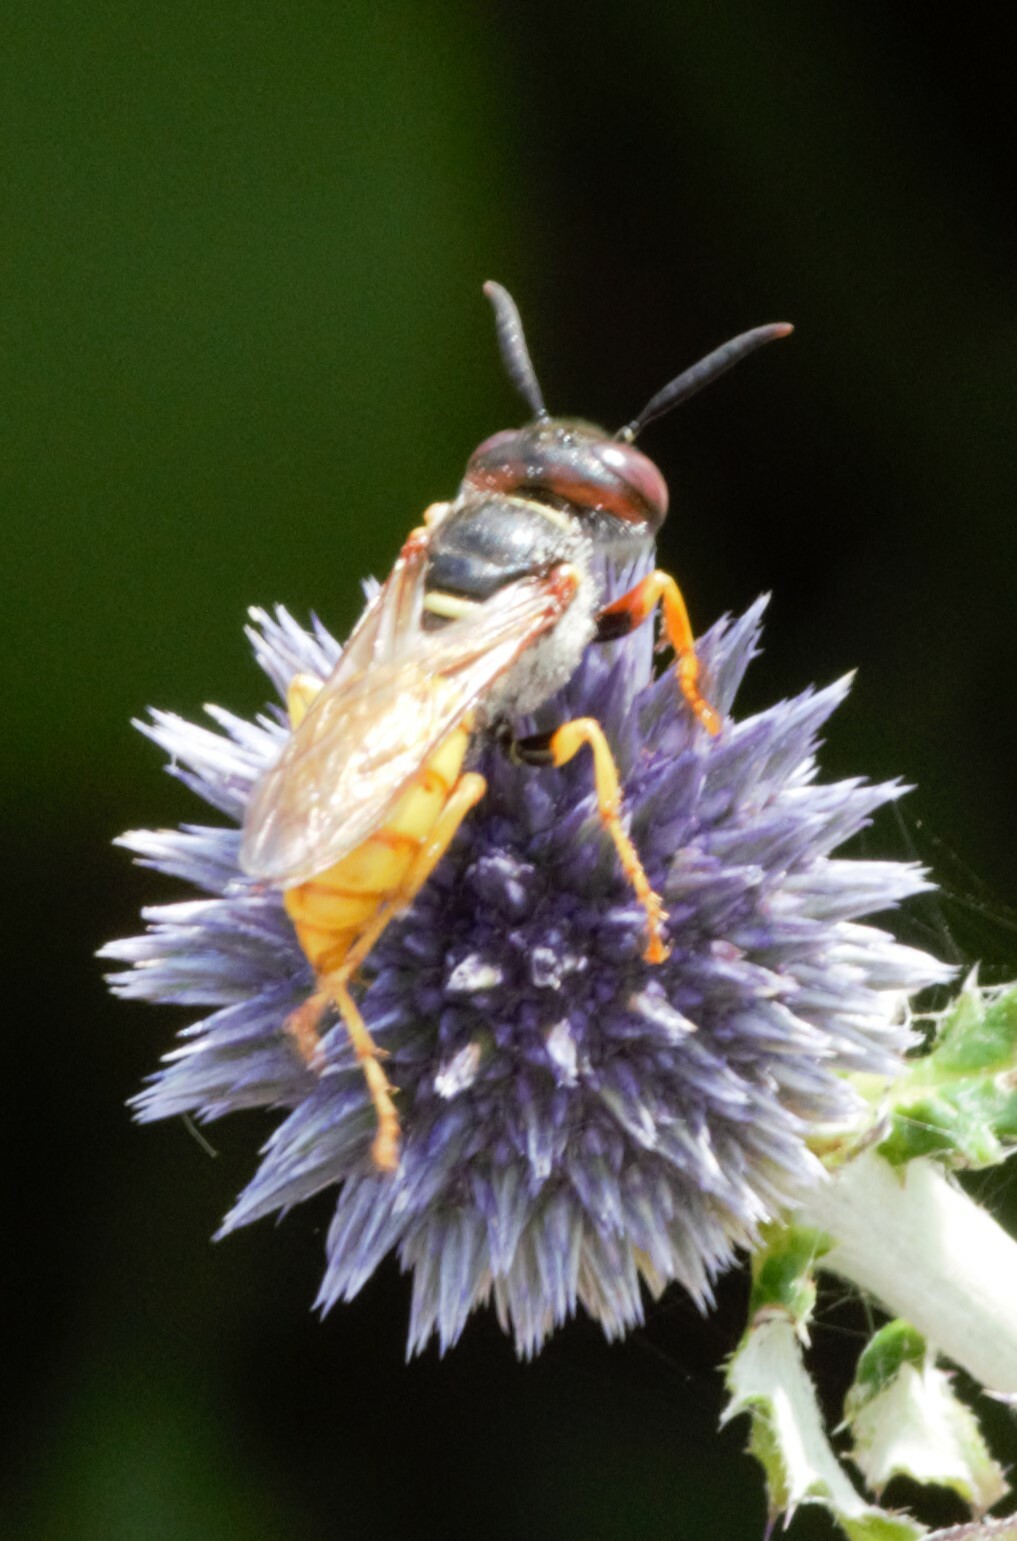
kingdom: Animalia
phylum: Arthropoda
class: Insecta
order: Hymenoptera
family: Crabronidae
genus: Philanthus
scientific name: Philanthus triangulum
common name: Bee wolf
